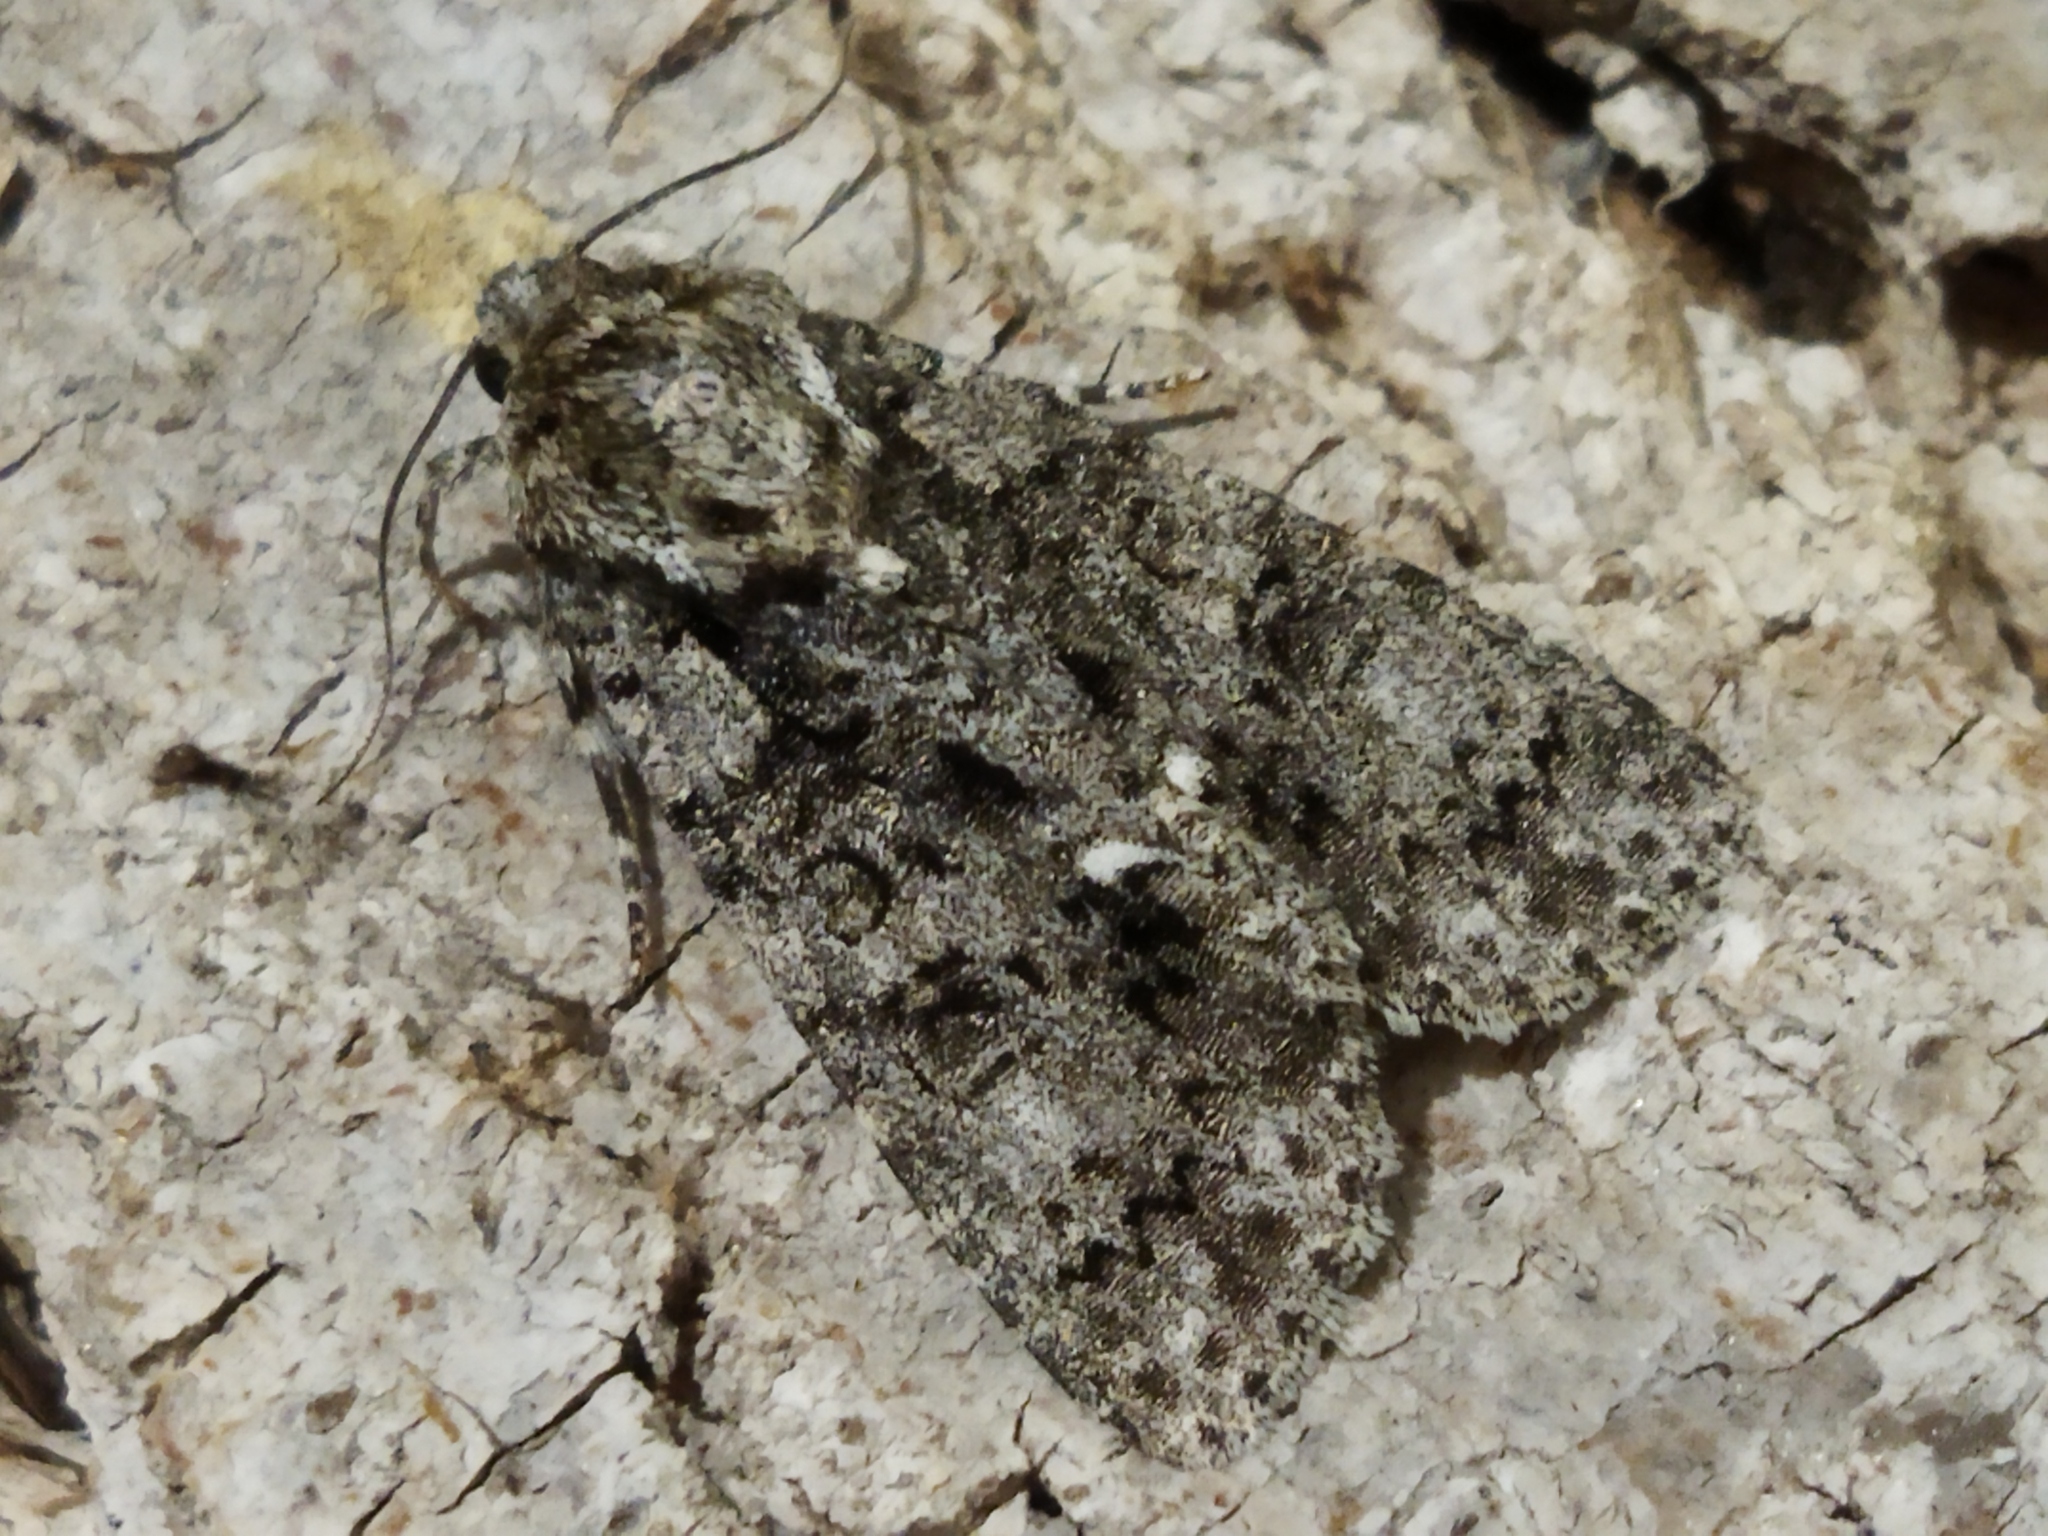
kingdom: Animalia
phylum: Arthropoda
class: Insecta
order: Lepidoptera
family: Noctuidae
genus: Acronicta
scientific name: Acronicta rumicis
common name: Knot grass
